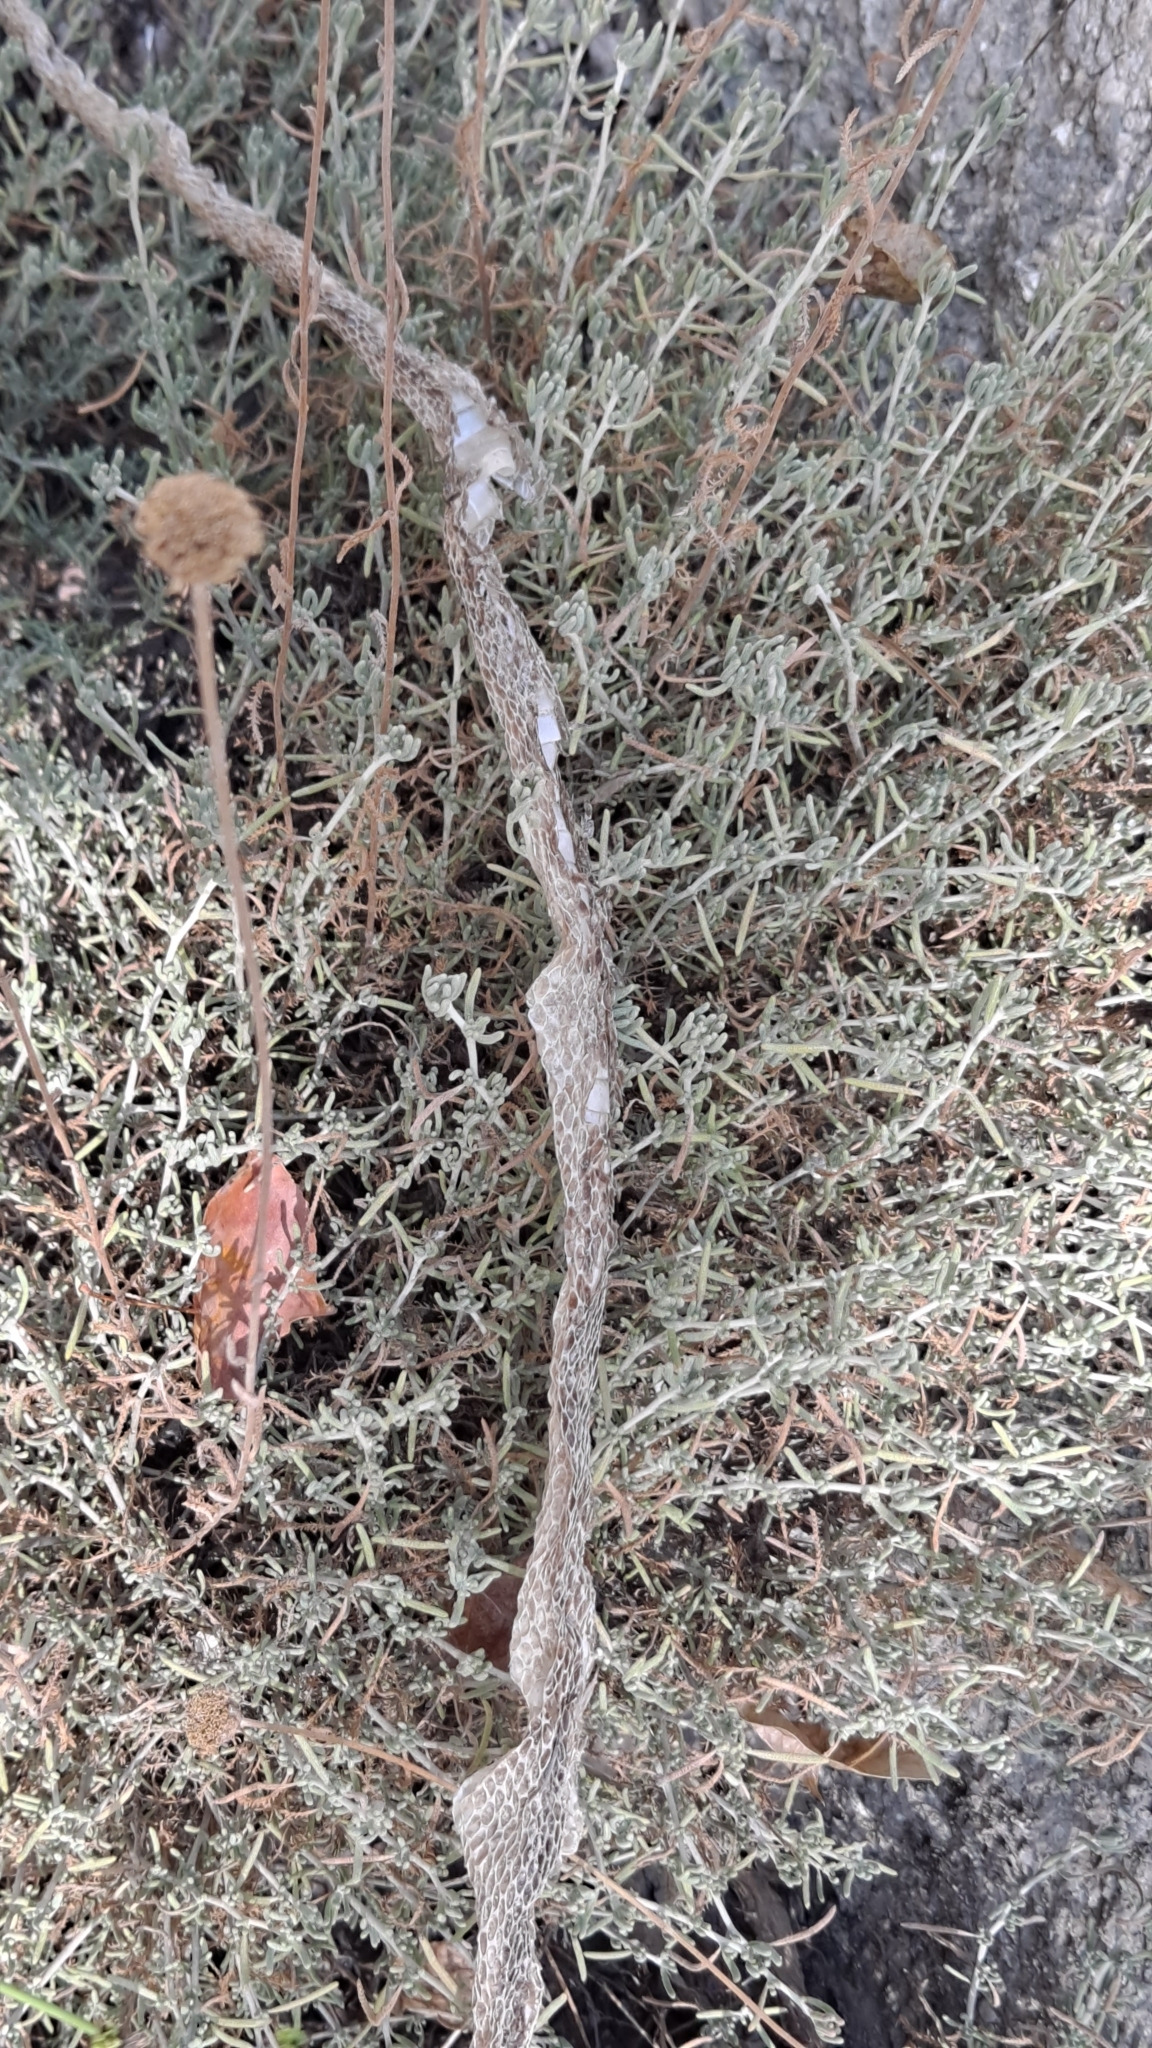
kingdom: Animalia
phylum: Chordata
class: Squamata
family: Colubridae
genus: Hemorrhois
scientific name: Hemorrhois hippocrepis
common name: Horseshoe whip snake
